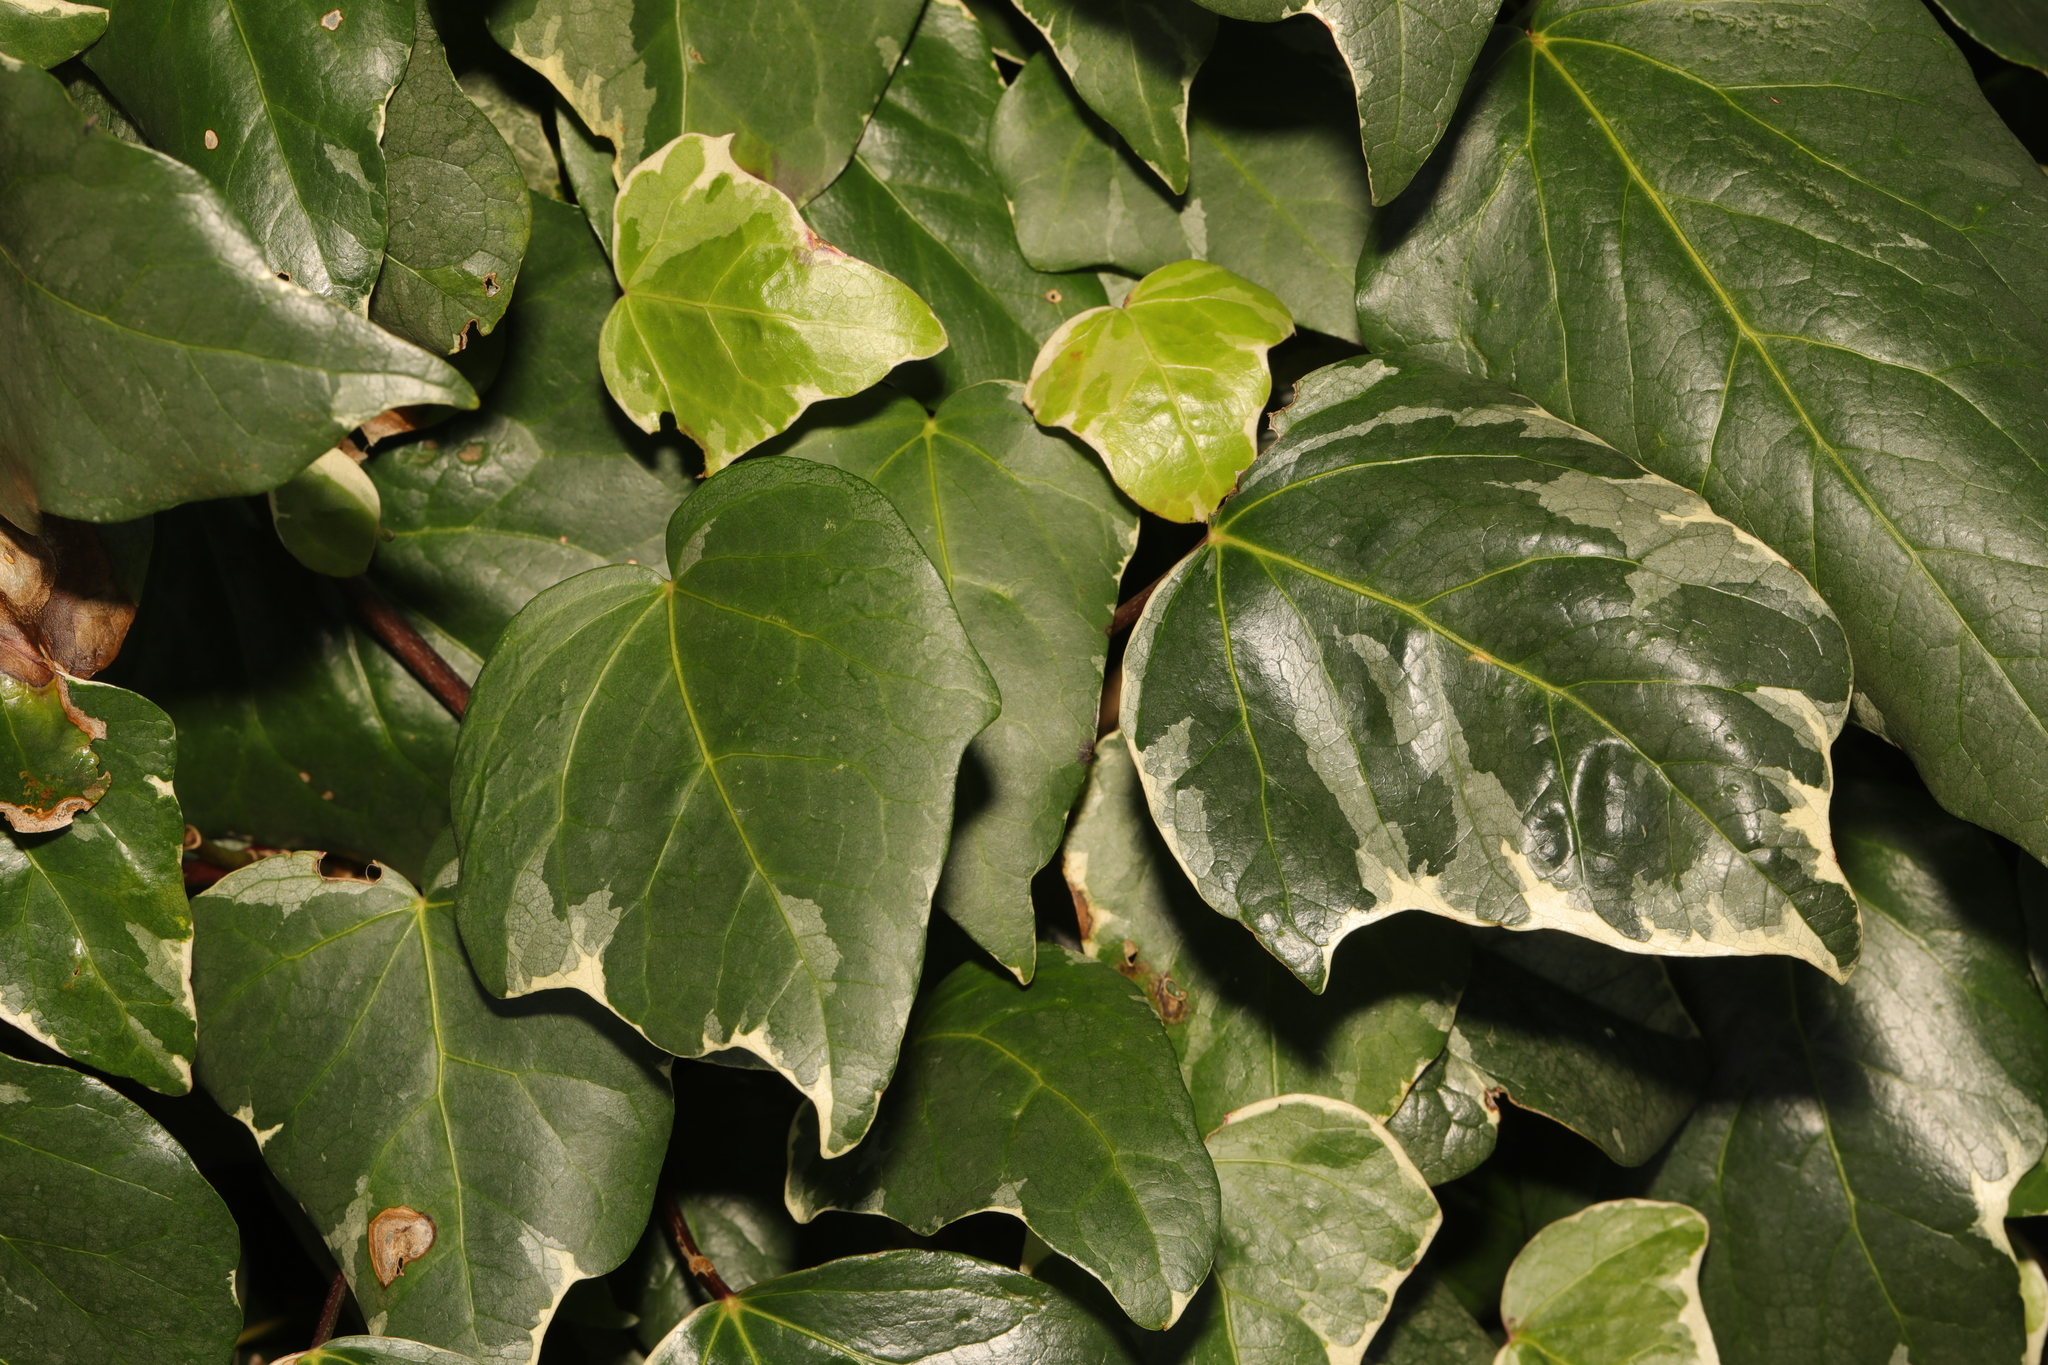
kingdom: Plantae
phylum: Tracheophyta
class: Magnoliopsida
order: Apiales
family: Araliaceae
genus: Hedera
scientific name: Hedera colchica
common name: Persian ivy
